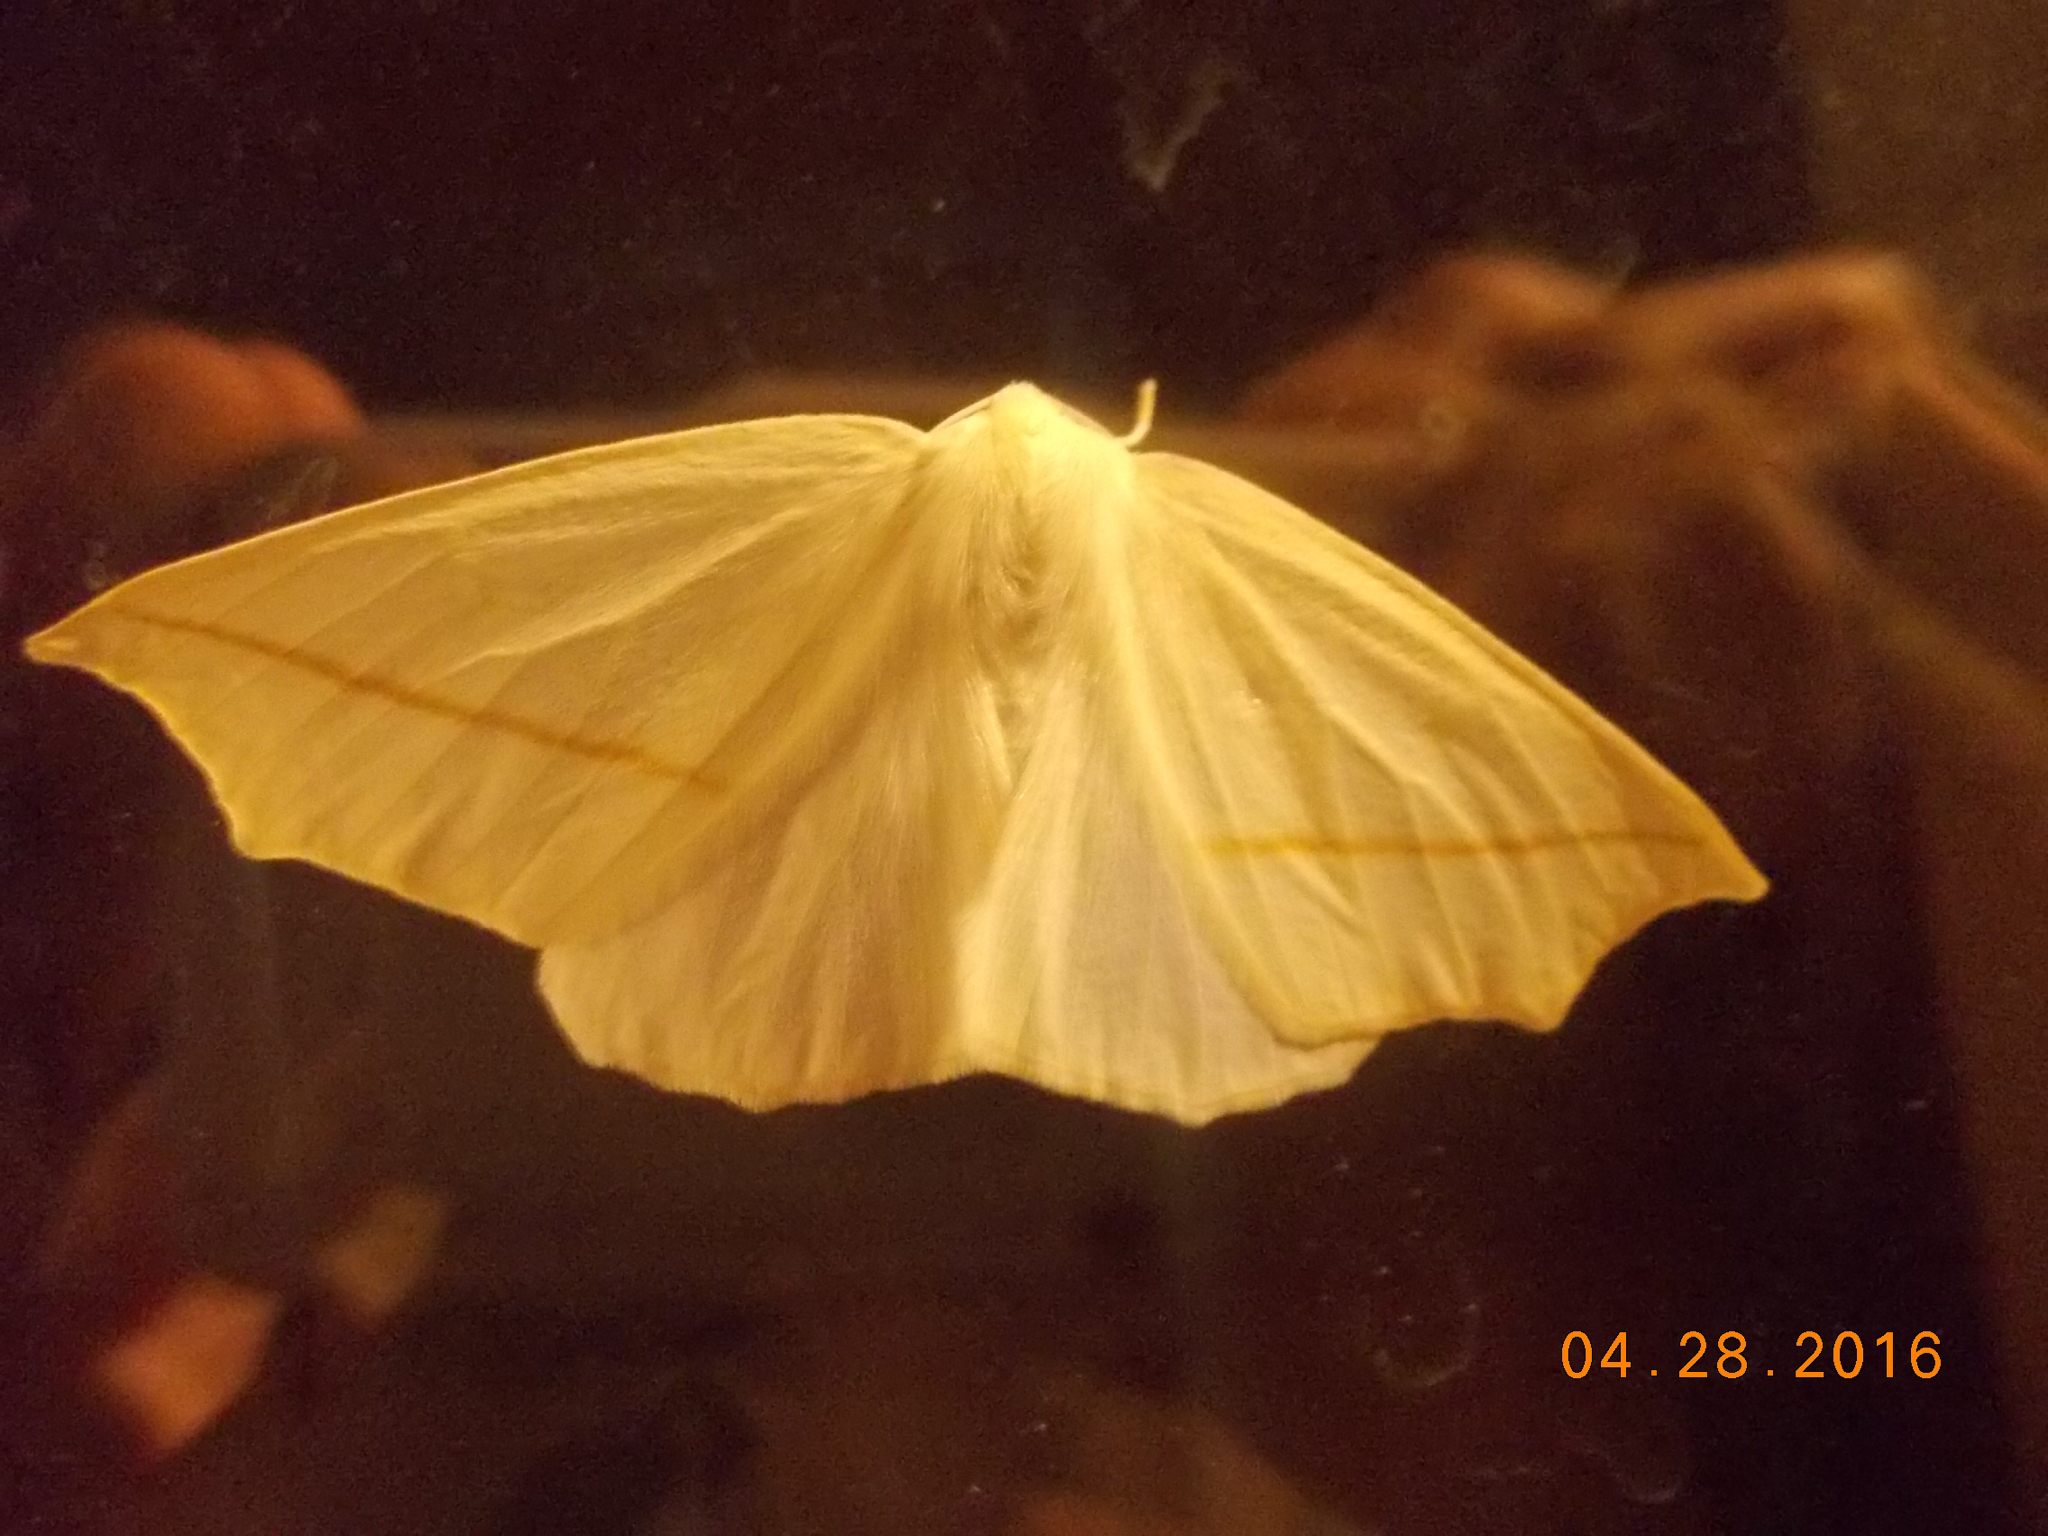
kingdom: Animalia
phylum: Arthropoda
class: Insecta
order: Lepidoptera
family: Geometridae
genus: Tetracis
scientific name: Tetracis cachexiata
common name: White slant-line
